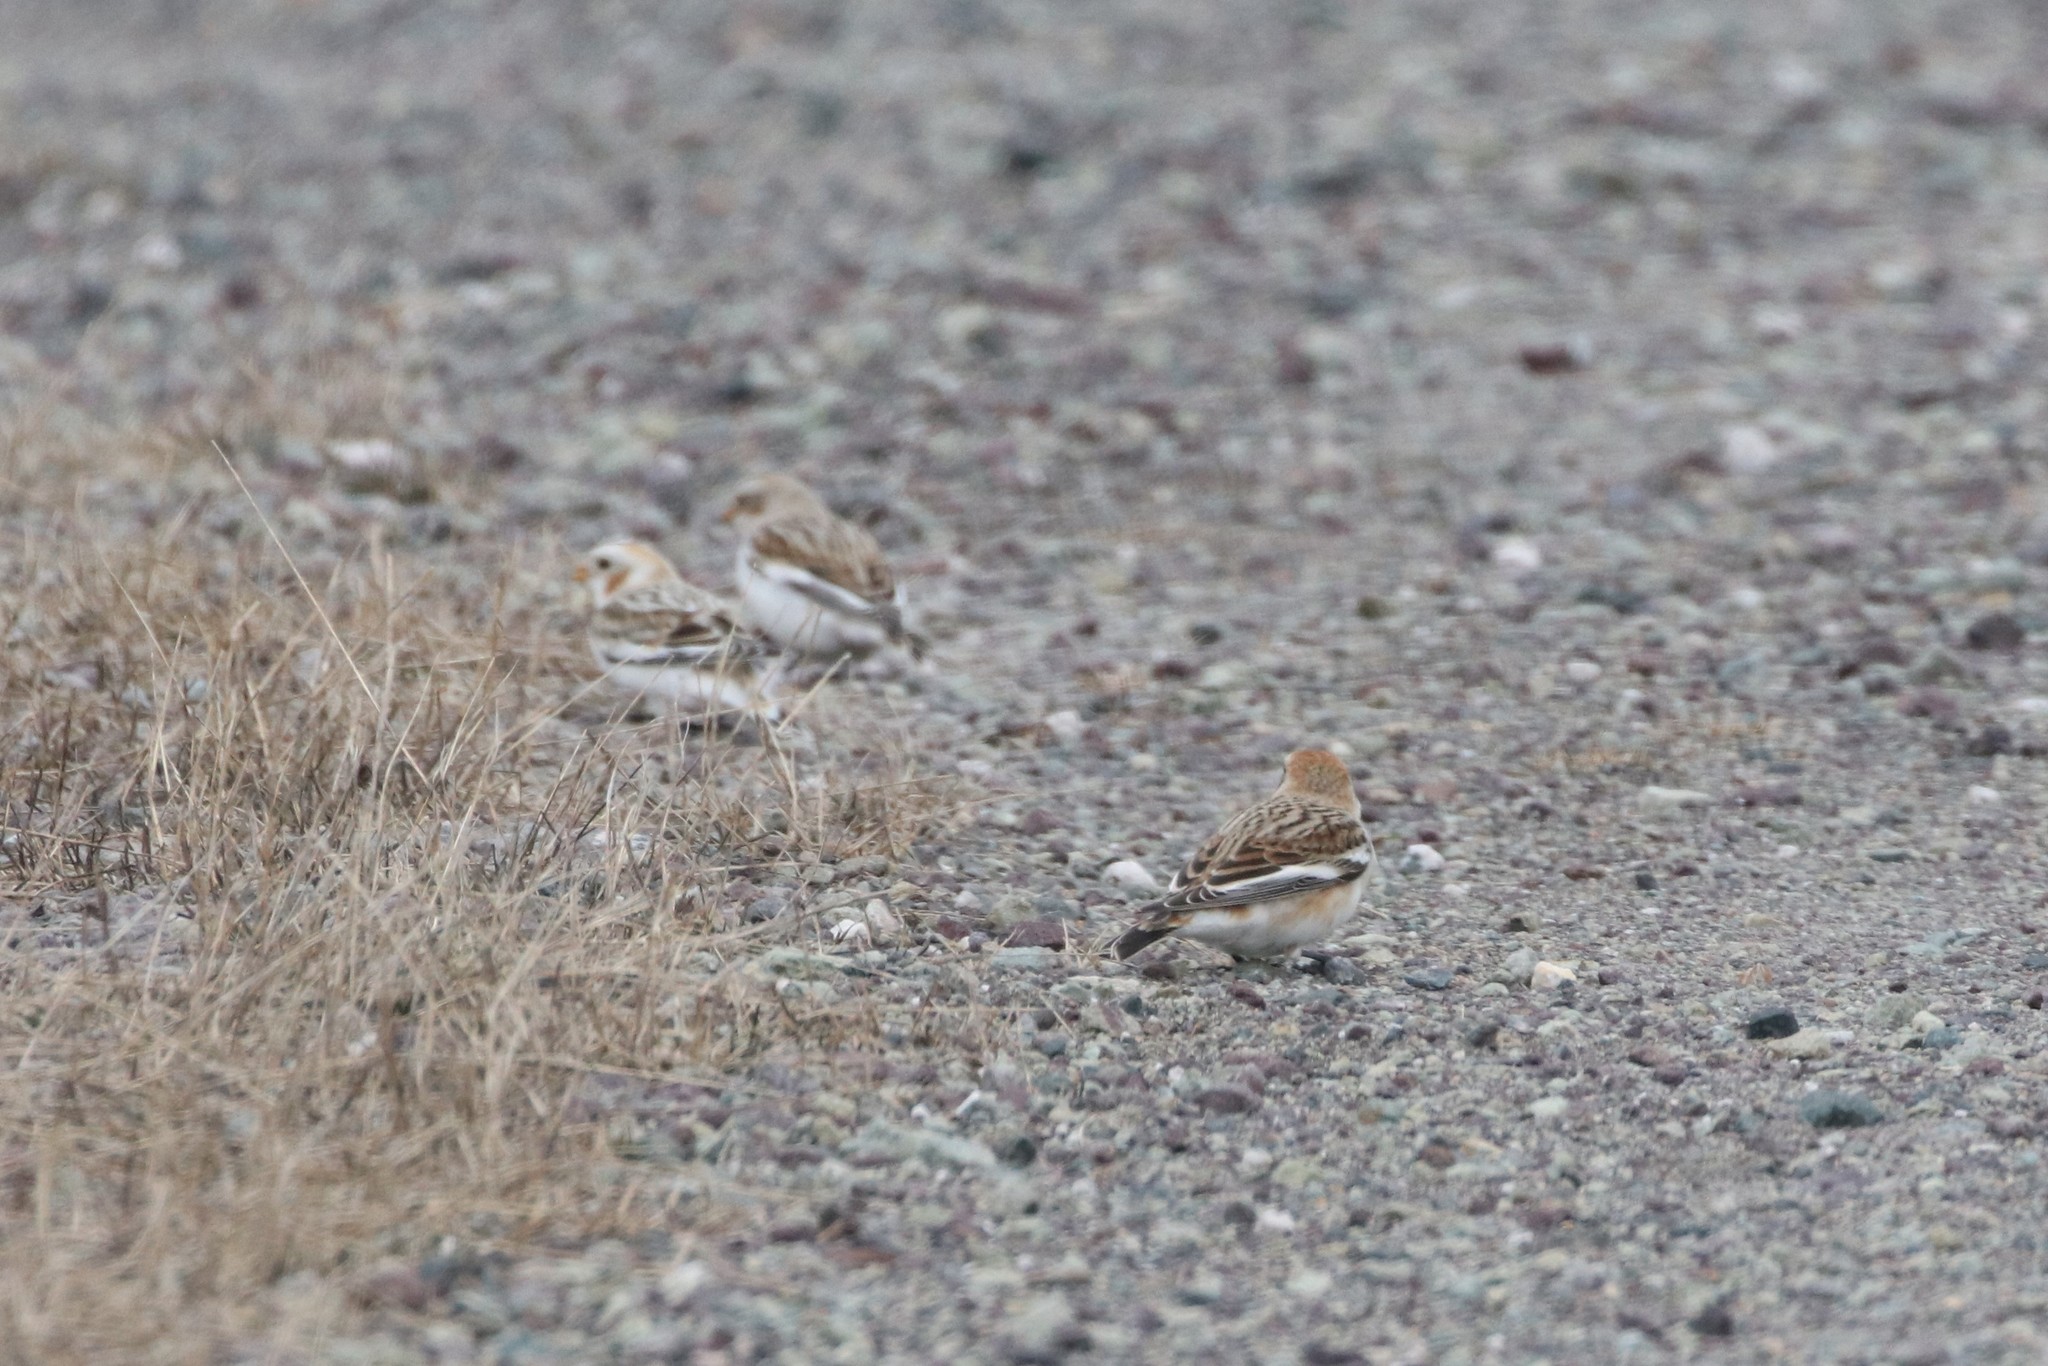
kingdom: Animalia
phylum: Chordata
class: Aves
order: Passeriformes
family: Calcariidae
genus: Plectrophenax
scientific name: Plectrophenax nivalis
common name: Snow bunting
